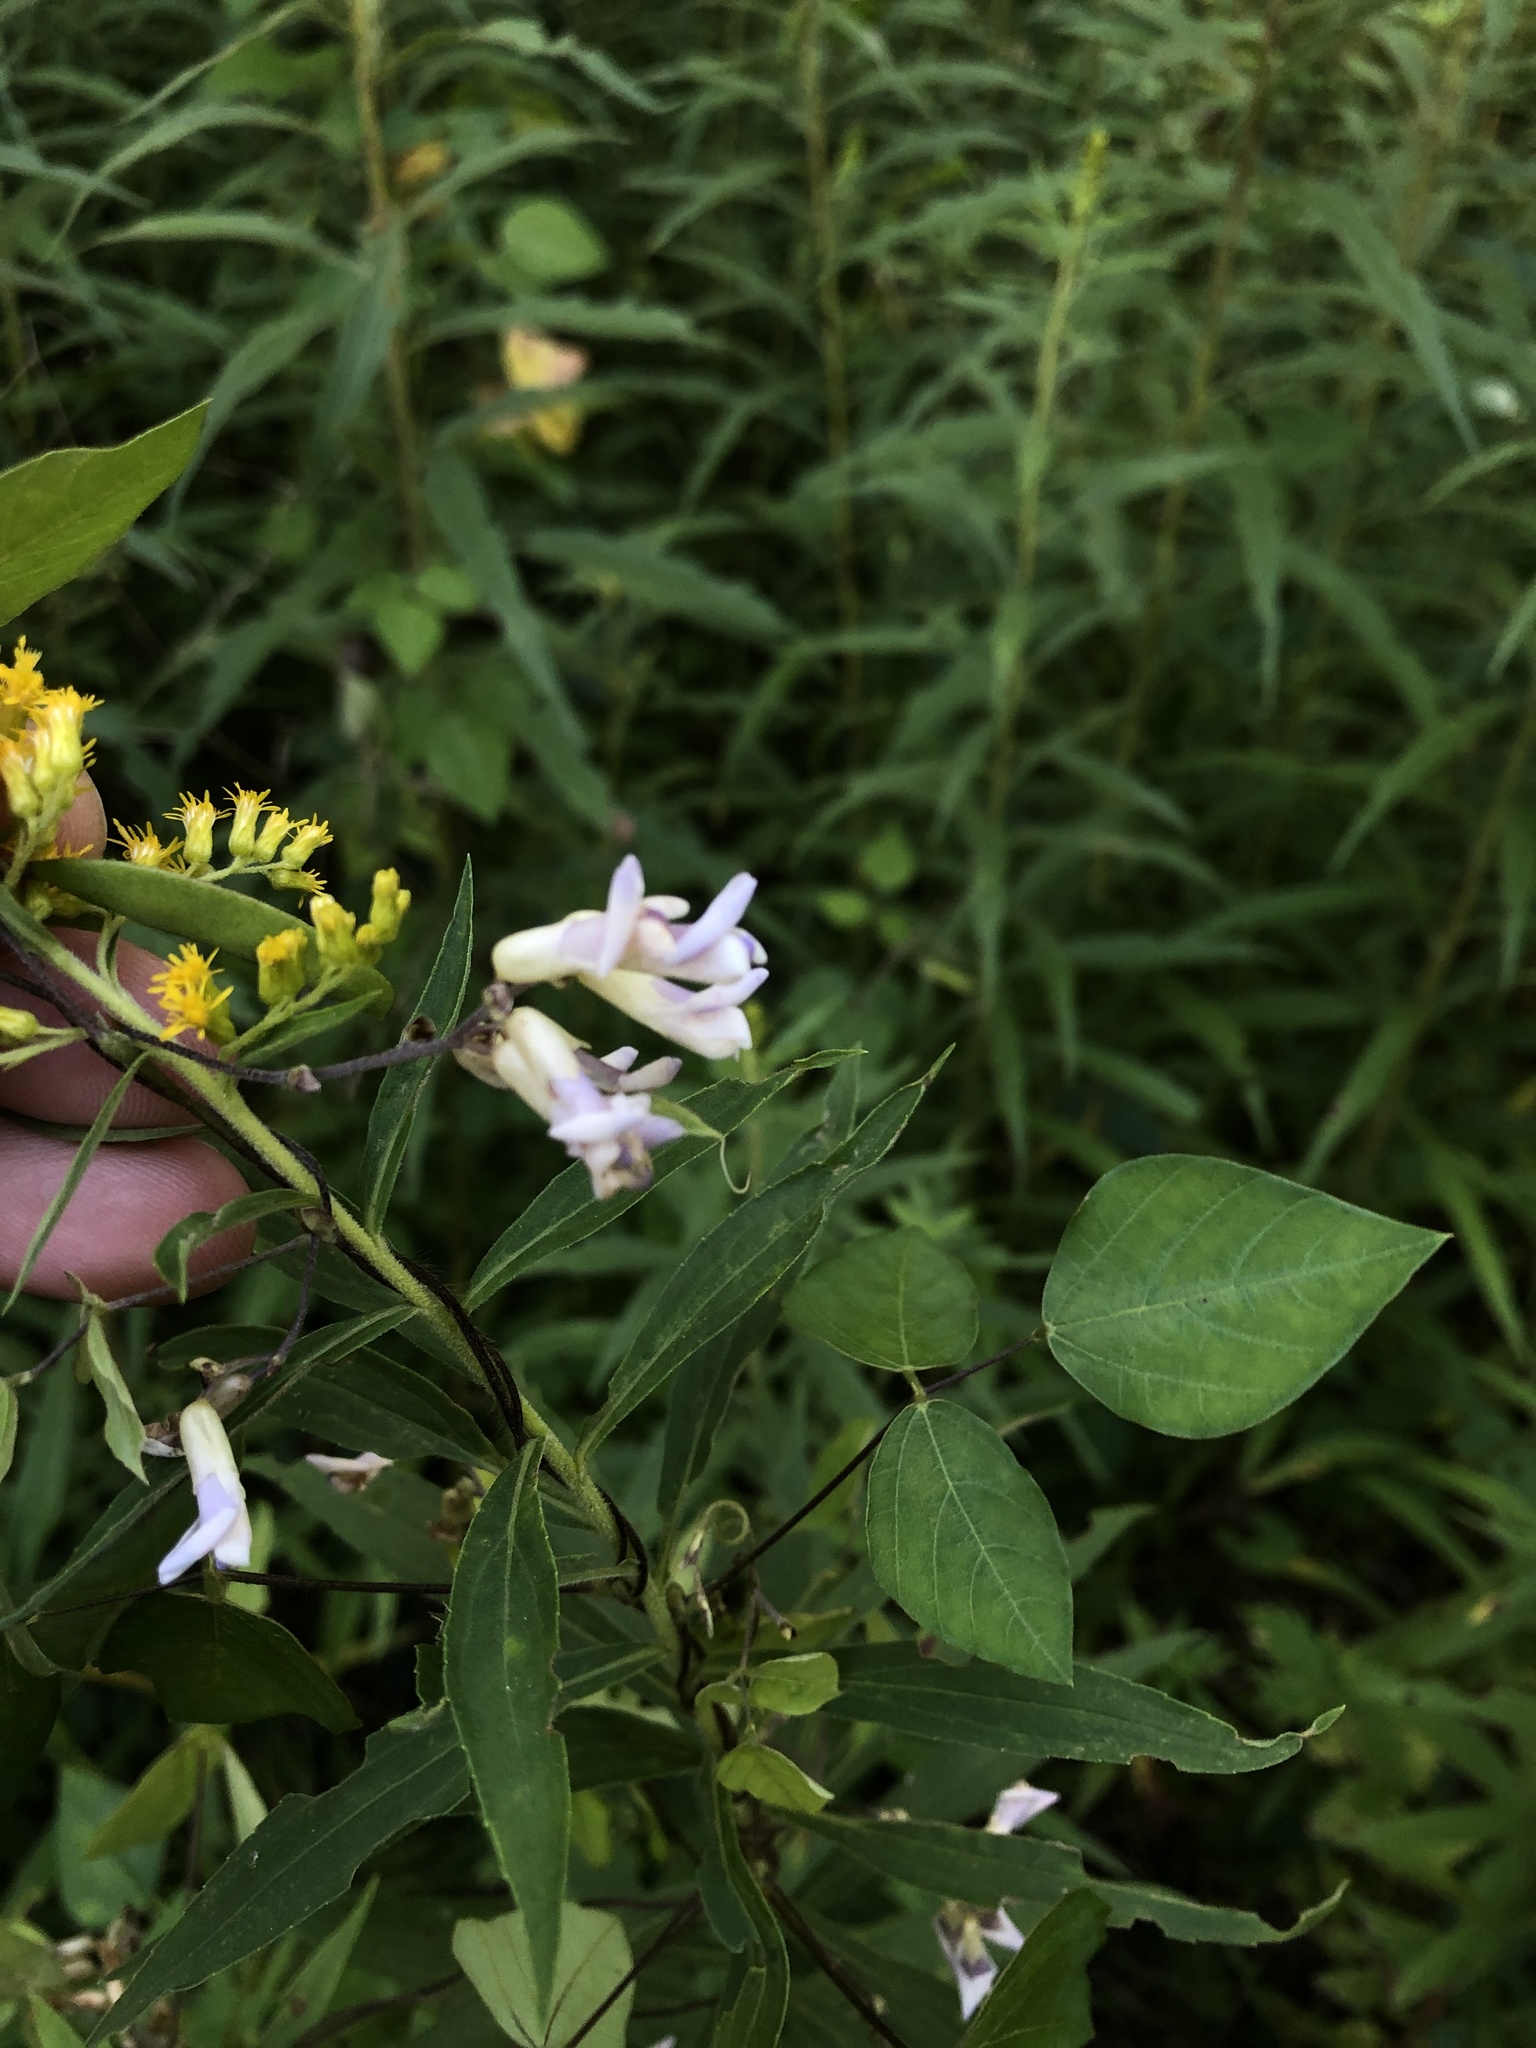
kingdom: Plantae
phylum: Tracheophyta
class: Magnoliopsida
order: Fabales
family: Fabaceae
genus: Amphicarpaea
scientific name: Amphicarpaea bracteata
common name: American hog peanut
